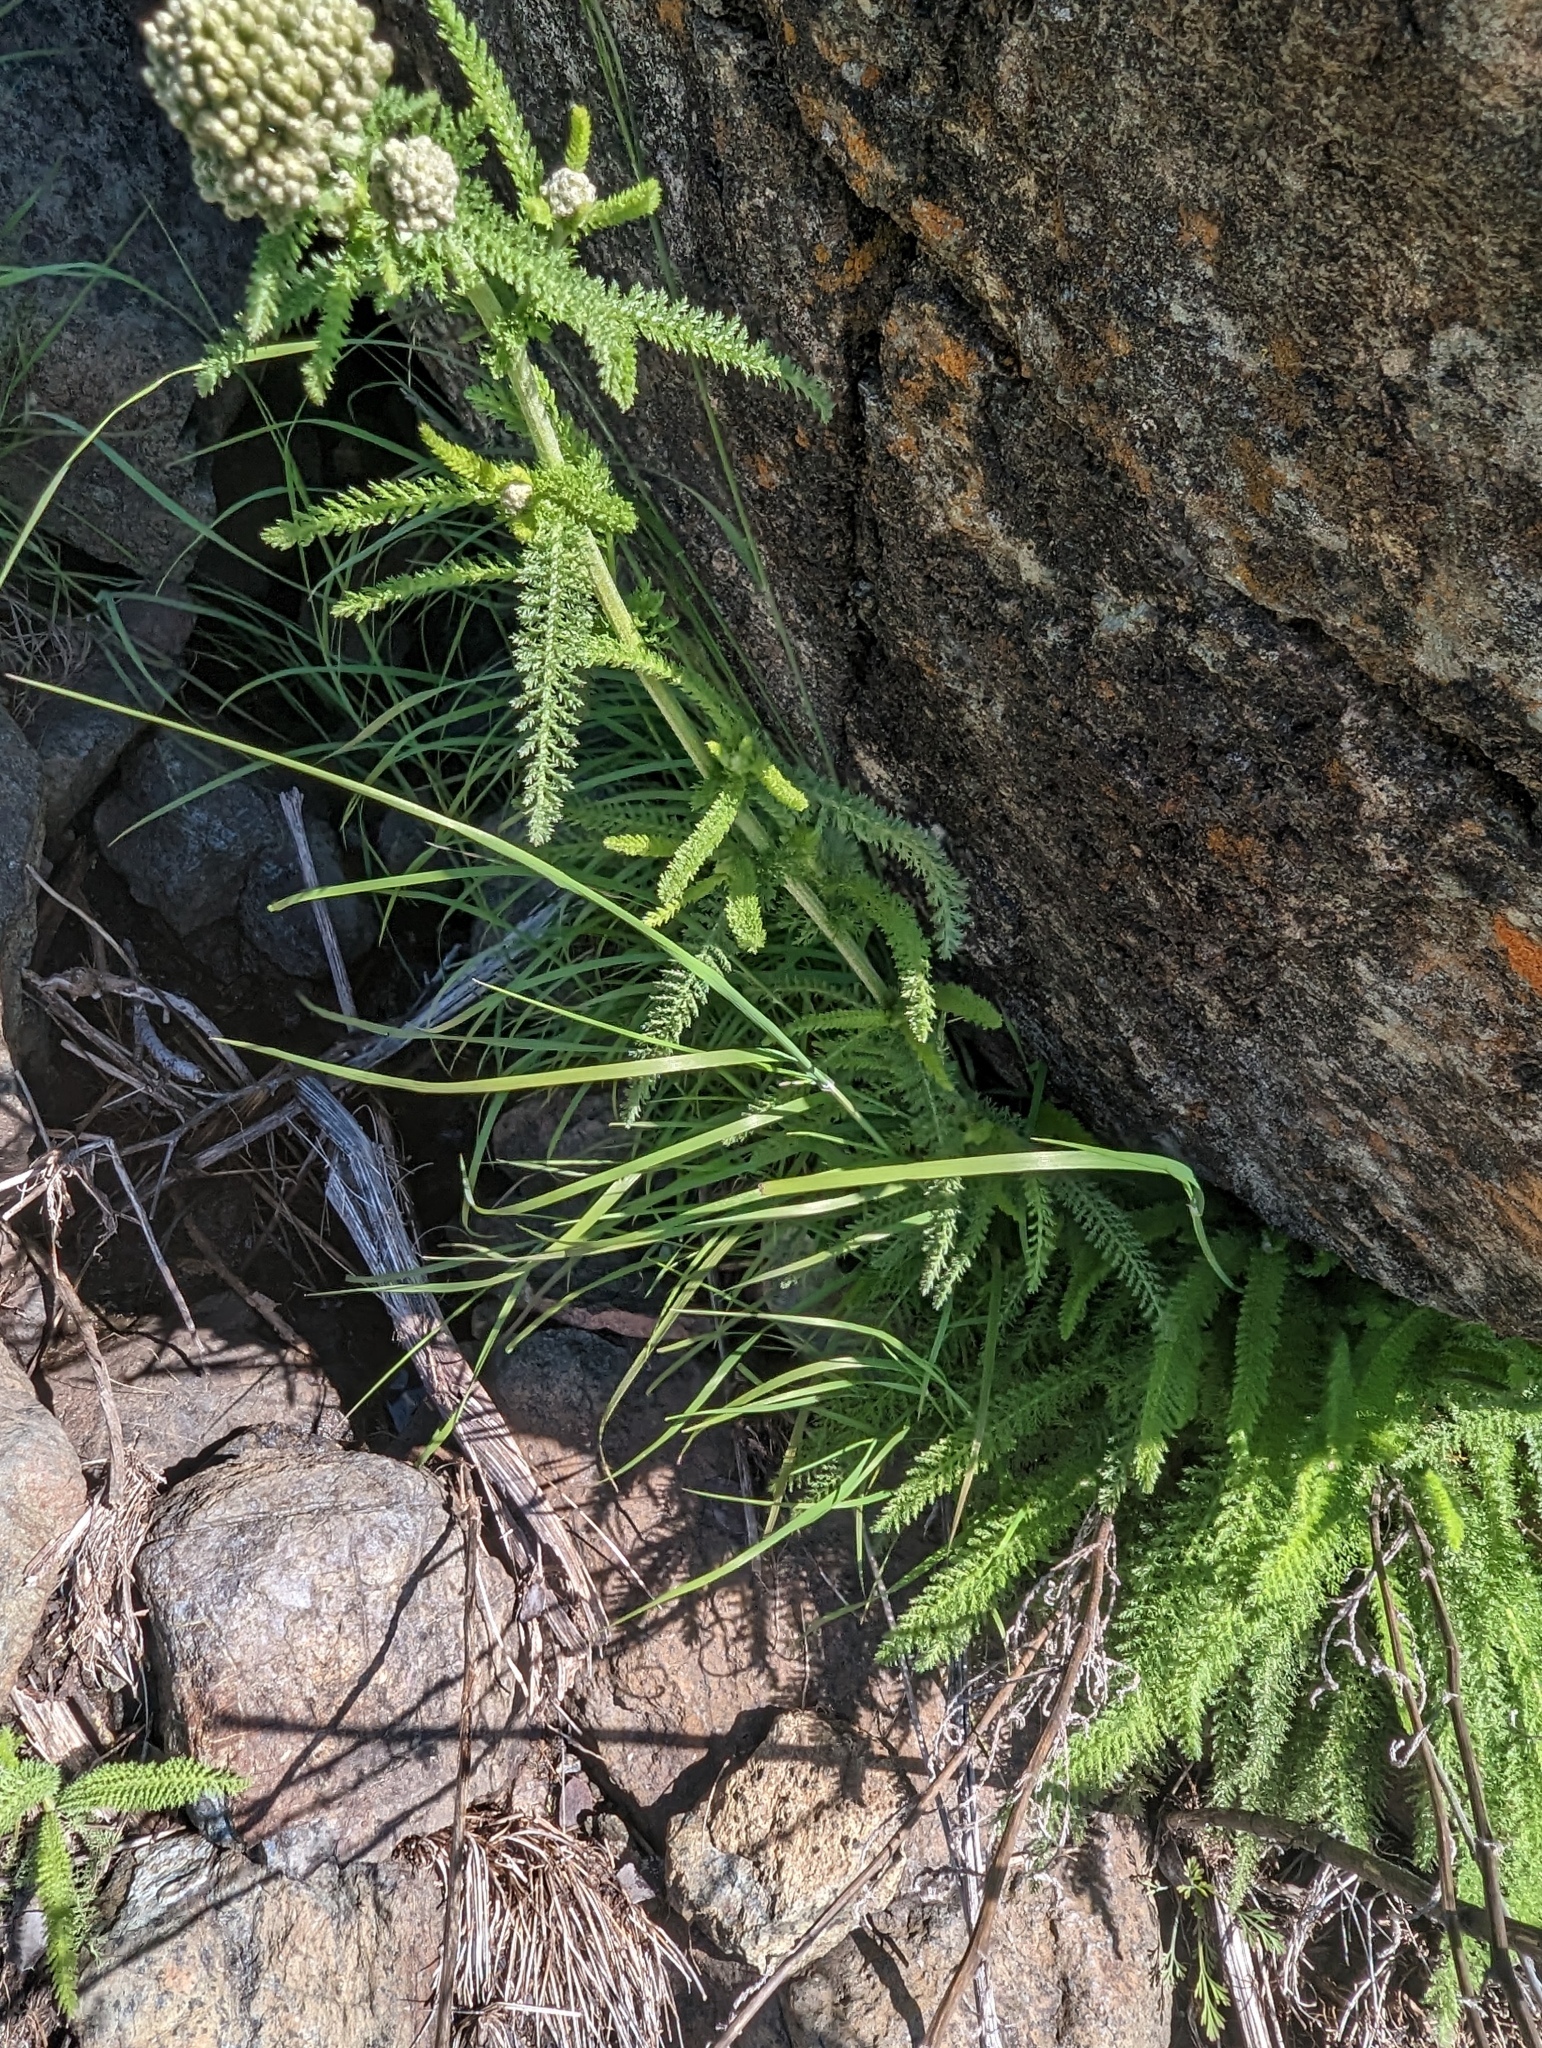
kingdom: Plantae
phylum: Tracheophyta
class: Magnoliopsida
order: Asterales
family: Asteraceae
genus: Achillea
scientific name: Achillea millefolium
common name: Yarrow
